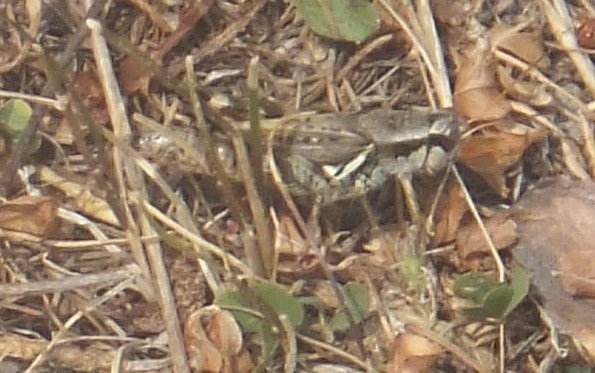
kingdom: Animalia
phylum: Arthropoda
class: Insecta
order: Orthoptera
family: Acrididae
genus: Melanoplus
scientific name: Melanoplus fasciatus
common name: Huckleberry locust
